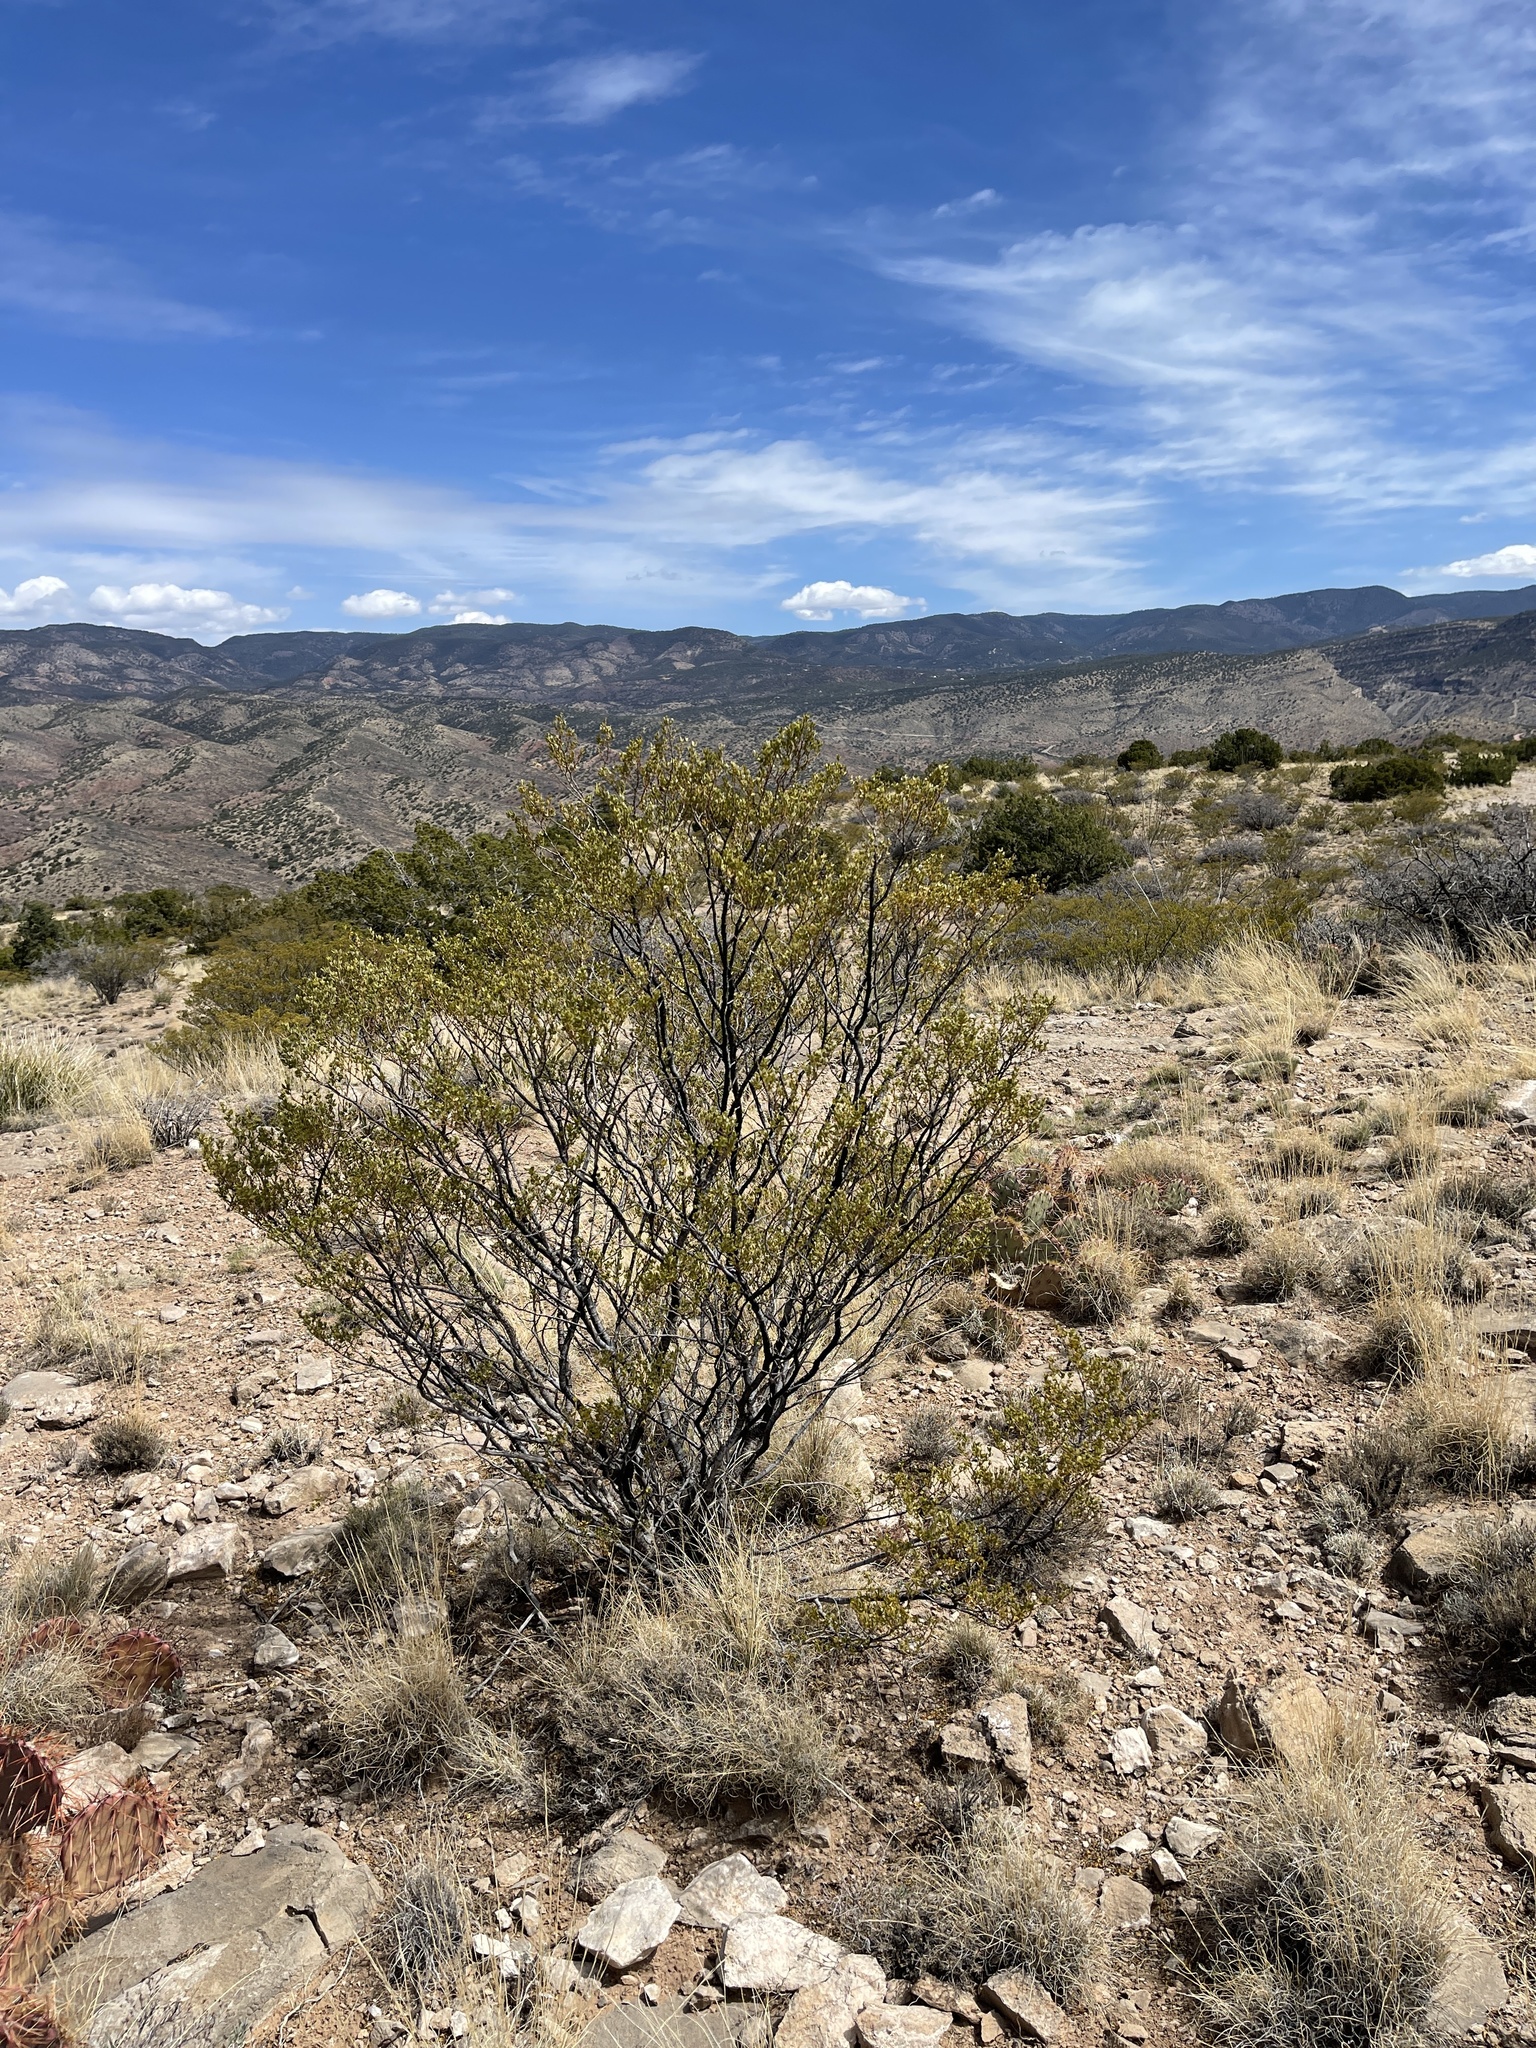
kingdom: Plantae
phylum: Tracheophyta
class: Magnoliopsida
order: Zygophyllales
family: Zygophyllaceae
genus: Larrea
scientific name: Larrea tridentata
